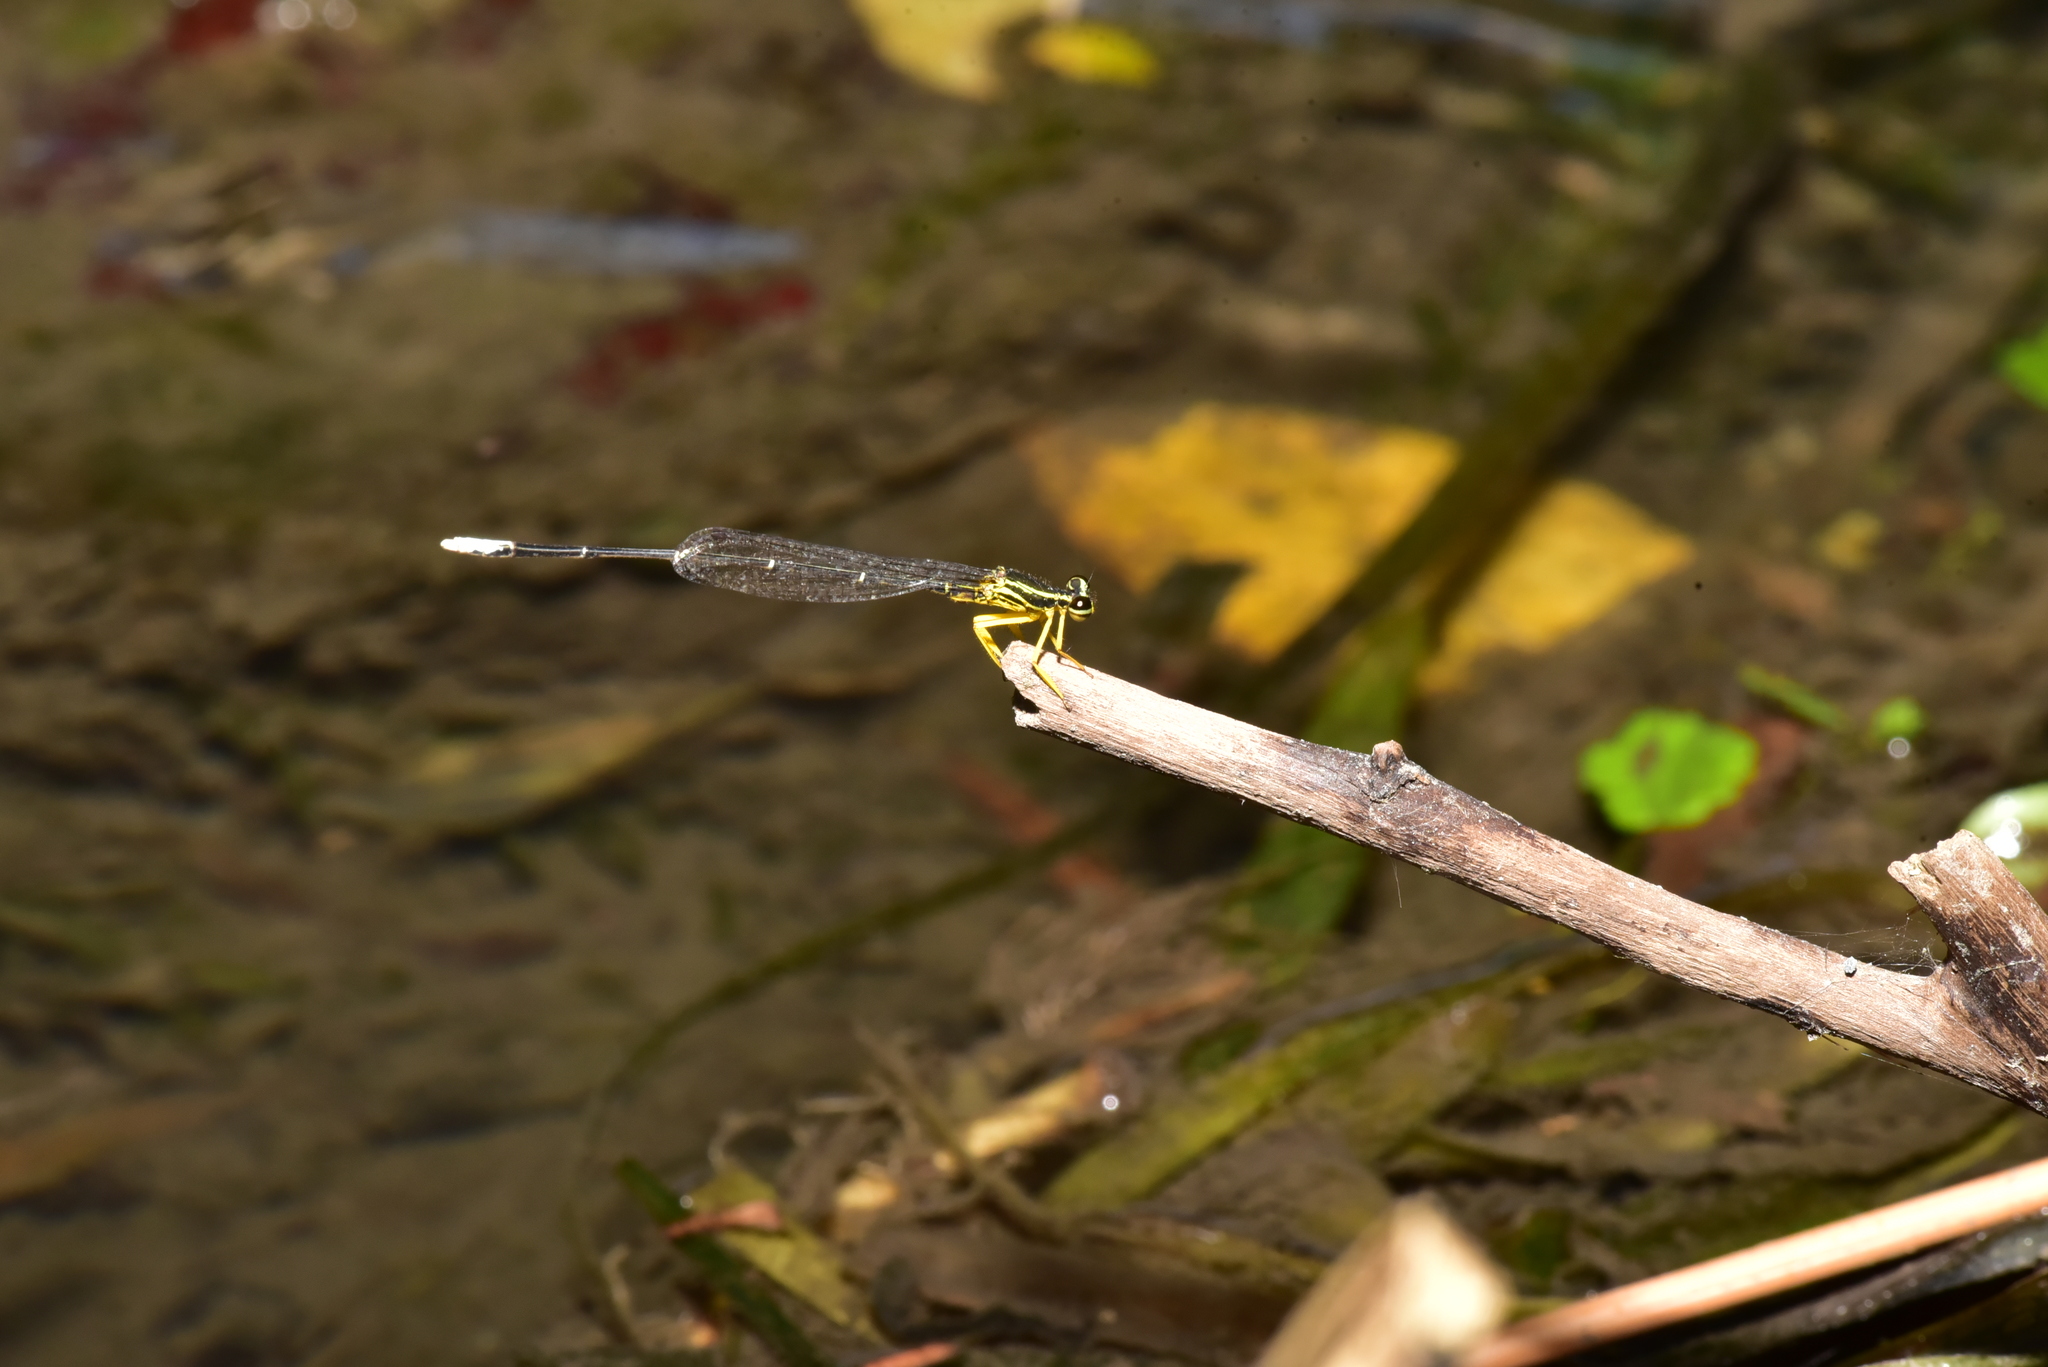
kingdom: Animalia
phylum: Arthropoda
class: Insecta
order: Odonata
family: Platycnemididae
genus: Copera
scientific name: Copera marginipes
